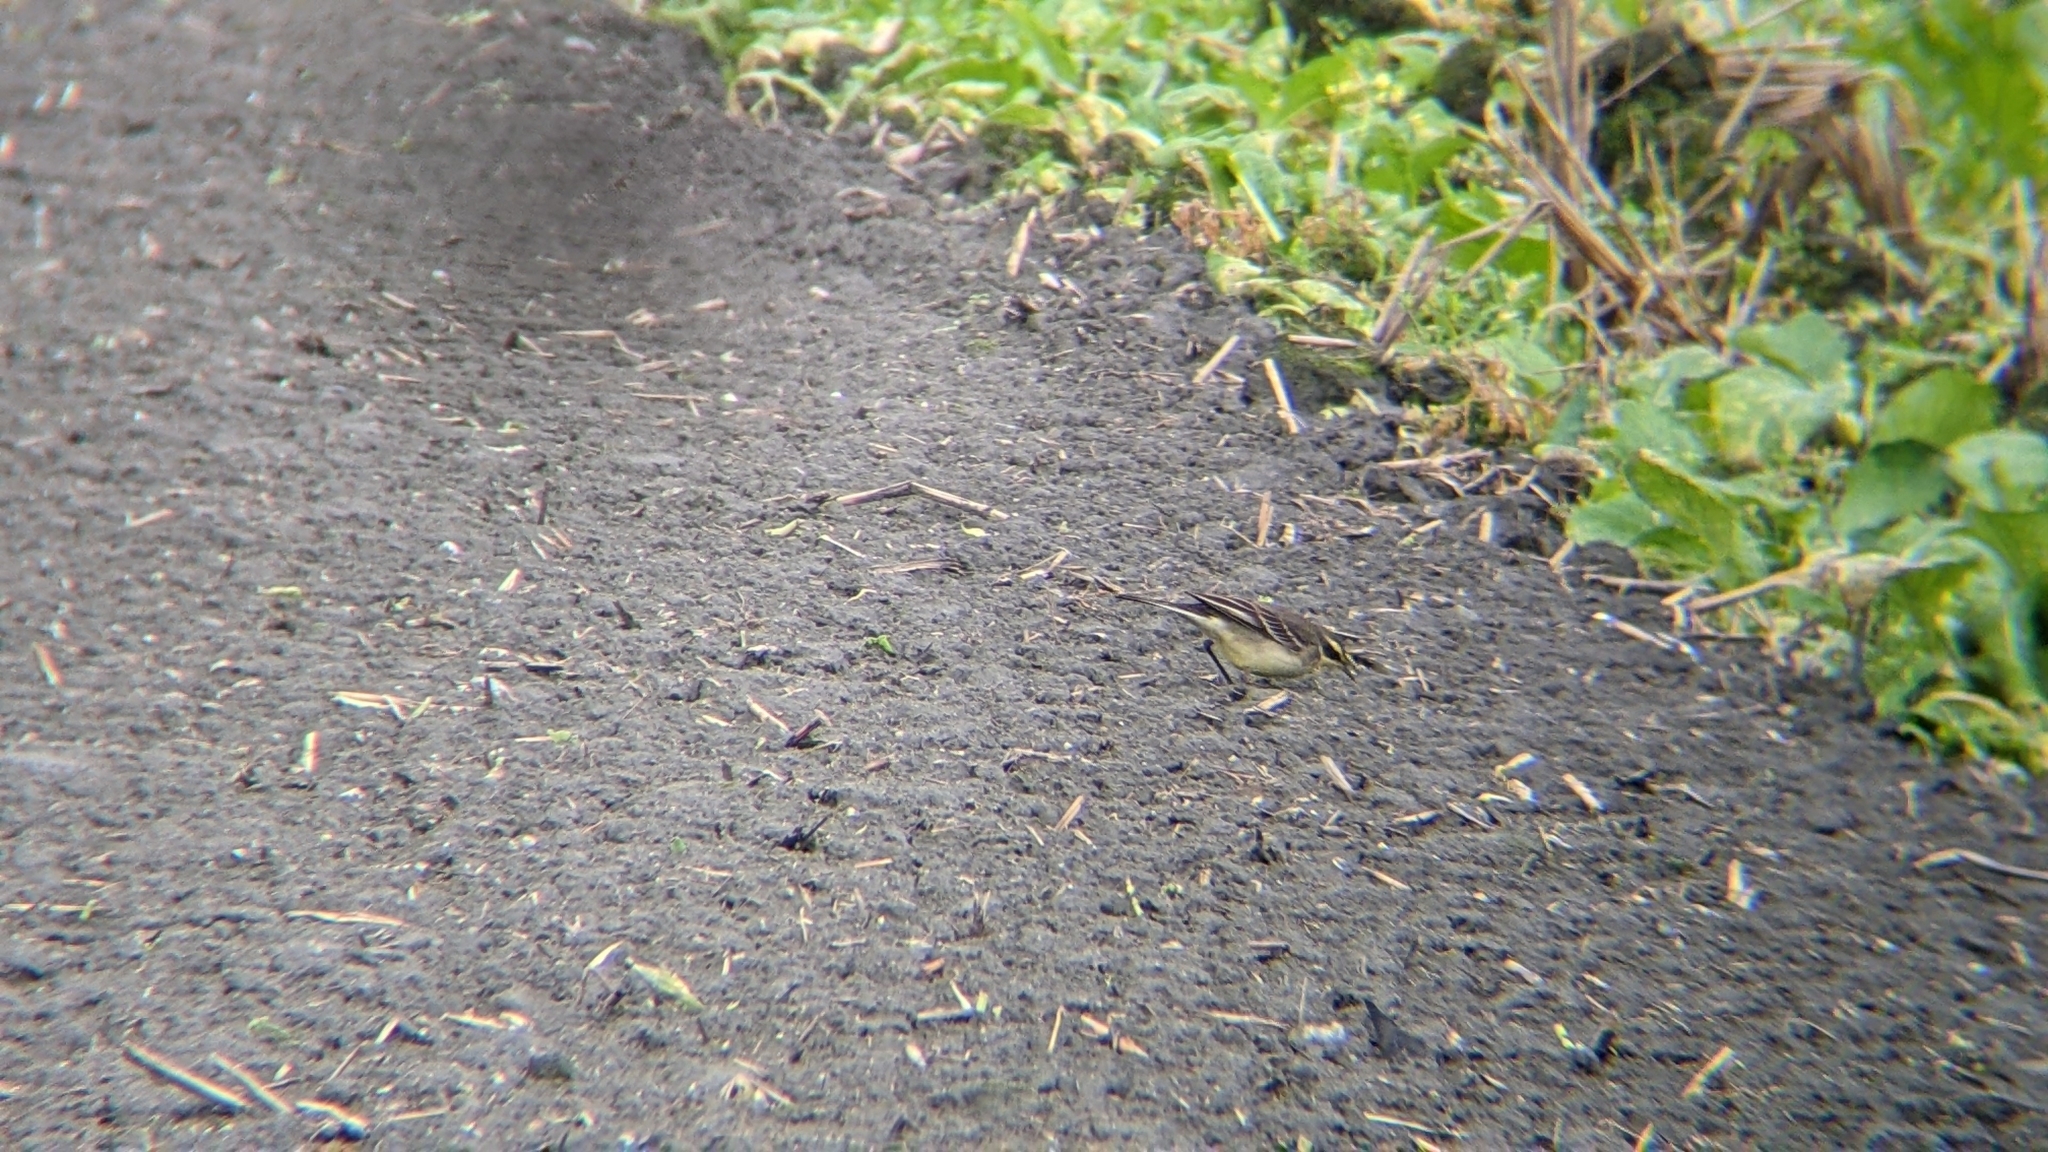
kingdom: Animalia
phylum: Chordata
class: Aves
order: Passeriformes
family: Motacillidae
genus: Motacilla
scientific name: Motacilla tschutschensis
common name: Eastern yellow wagtail
